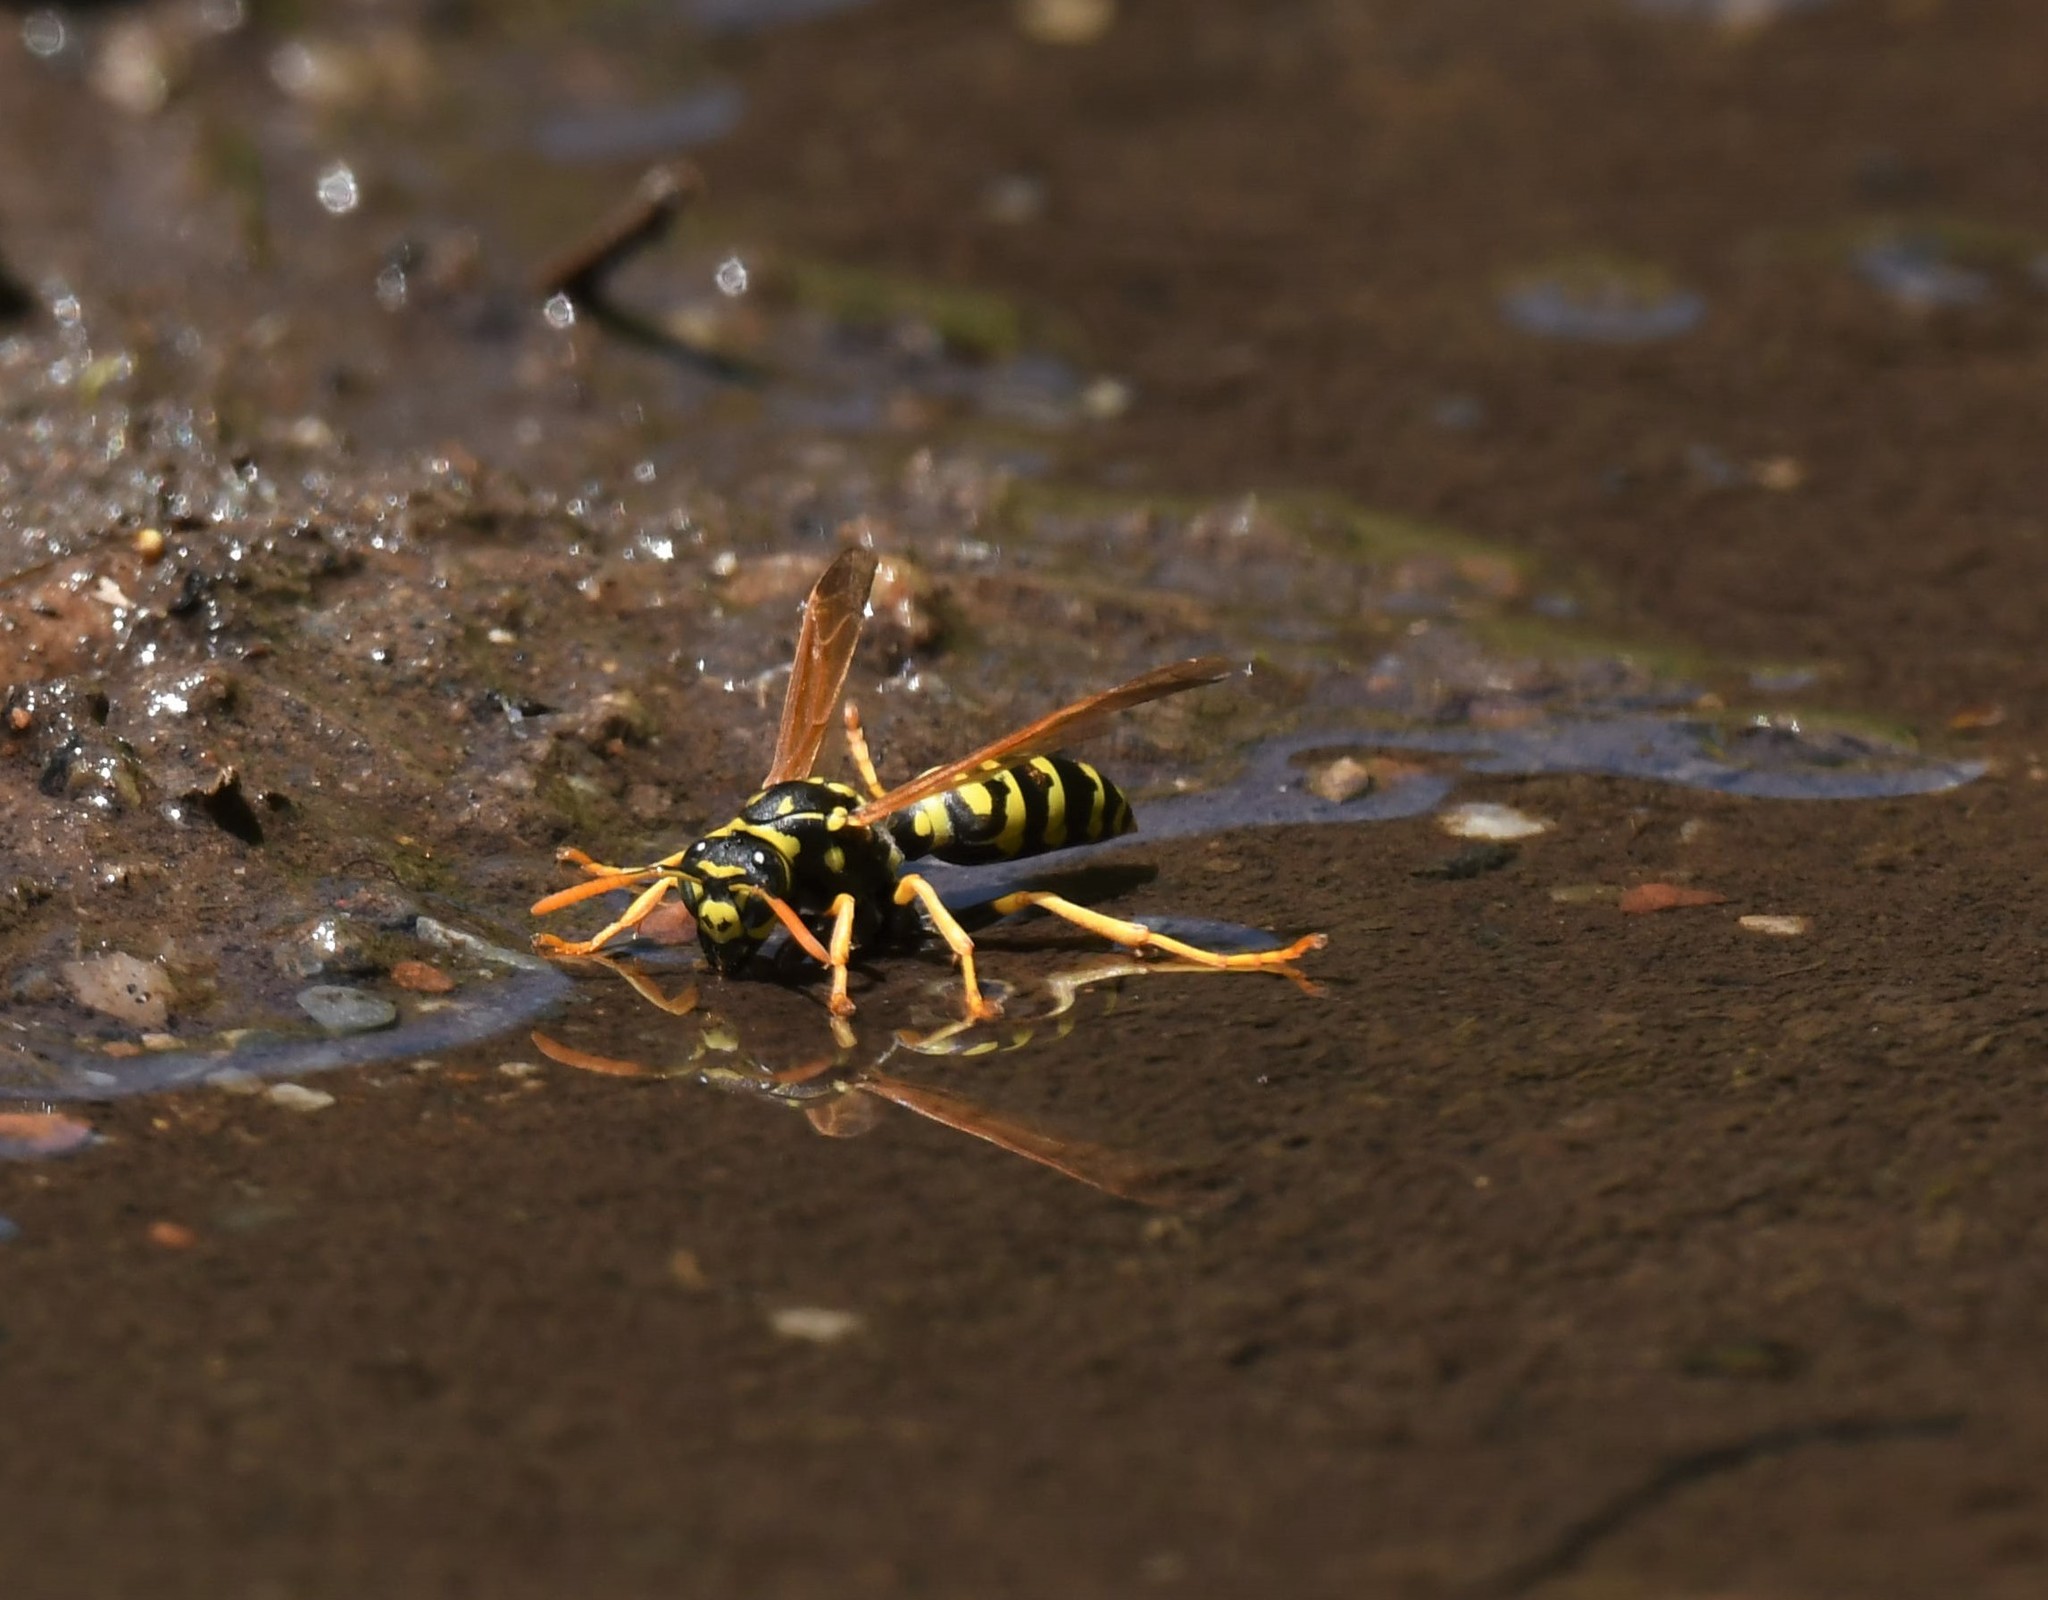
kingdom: Animalia
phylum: Arthropoda
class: Insecta
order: Hymenoptera
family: Eumenidae
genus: Polistes
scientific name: Polistes dominula
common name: Paper wasp
